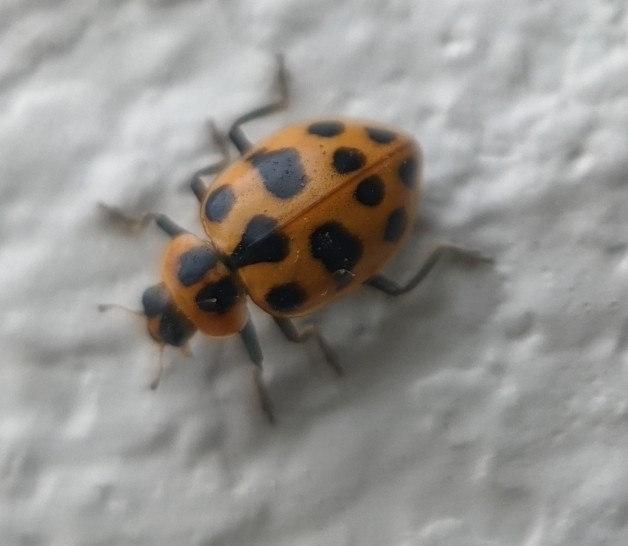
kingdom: Animalia
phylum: Arthropoda
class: Insecta
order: Coleoptera
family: Coccinellidae
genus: Coleomegilla
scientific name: Coleomegilla maculata
